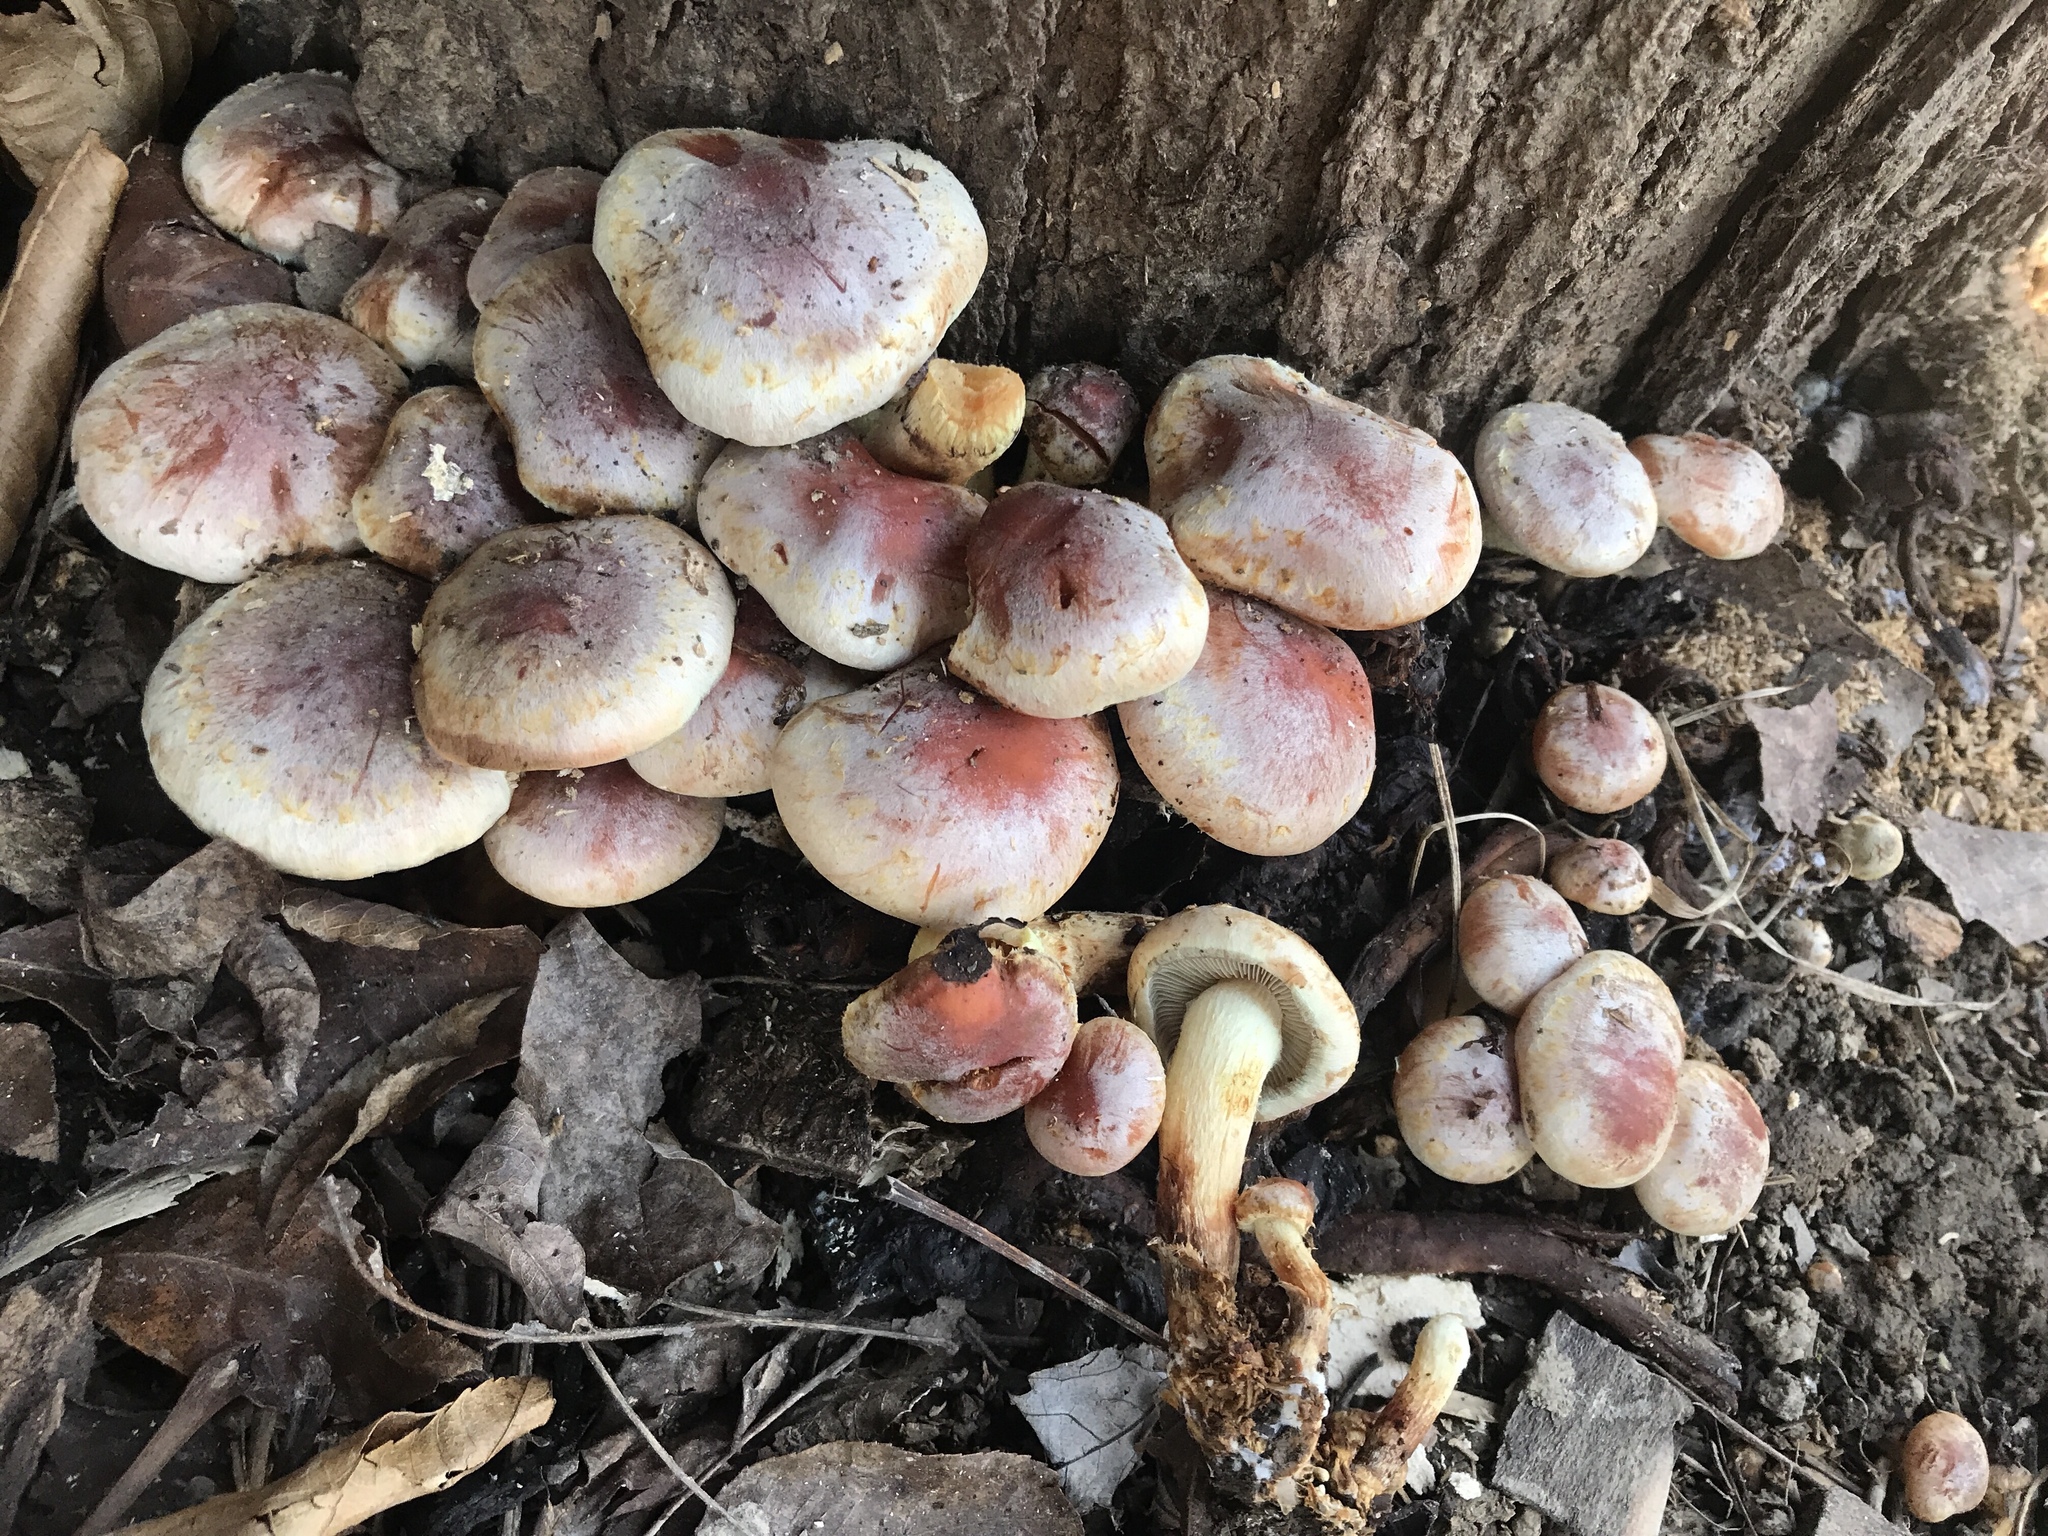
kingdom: Fungi
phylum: Basidiomycota
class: Agaricomycetes
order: Agaricales
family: Strophariaceae
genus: Hypholoma
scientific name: Hypholoma lateritium
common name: Brick caps
